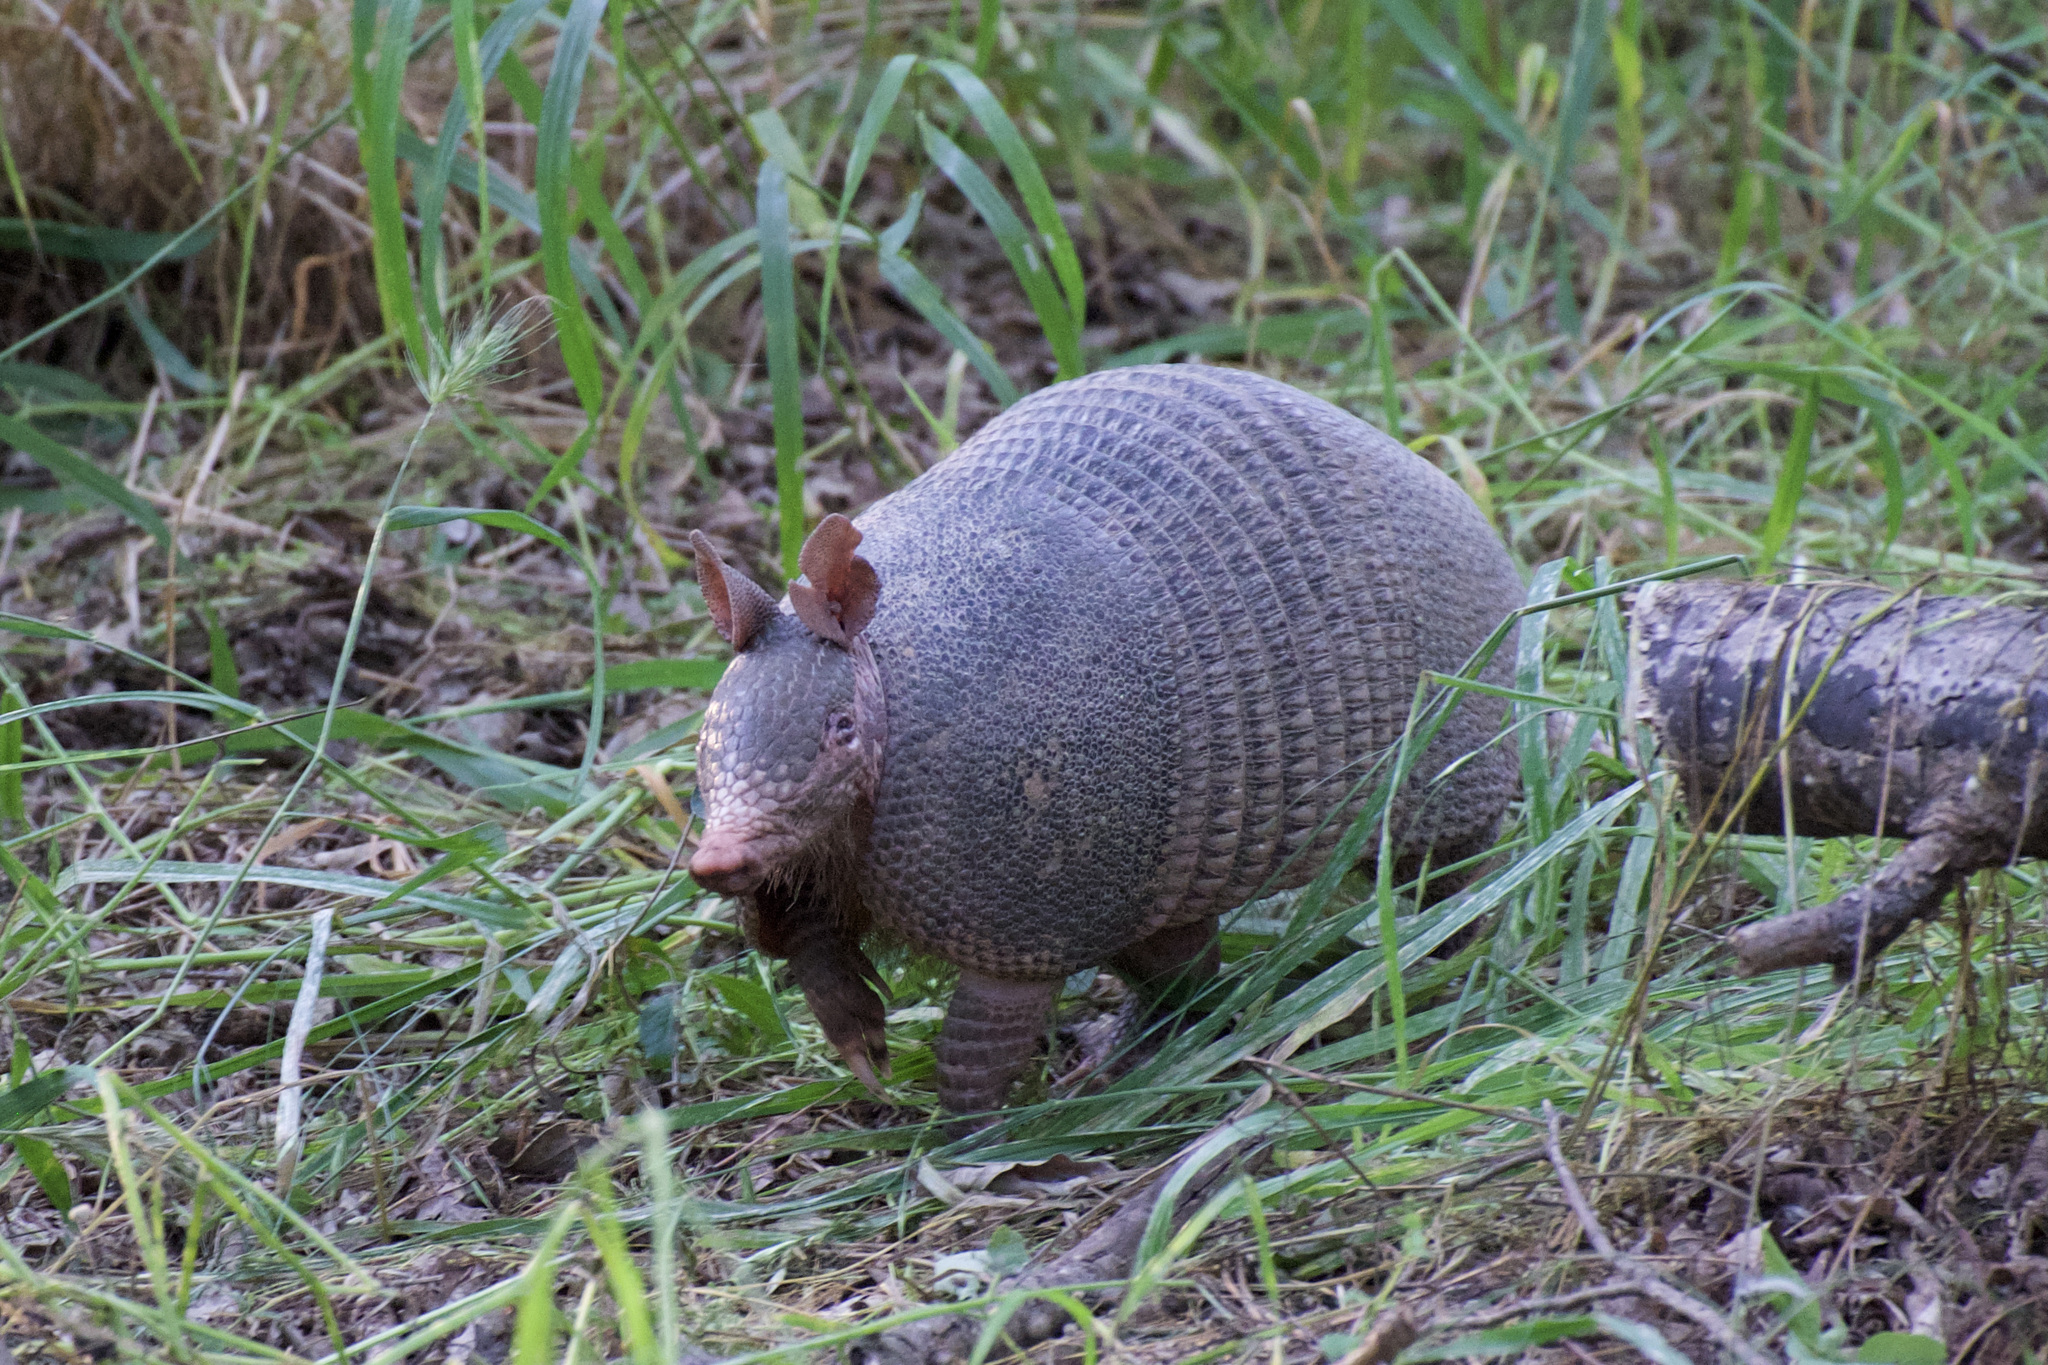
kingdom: Animalia
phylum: Chordata
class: Mammalia
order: Cingulata
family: Dasypodidae
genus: Dasypus
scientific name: Dasypus novemcinctus
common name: Nine-banded armadillo
